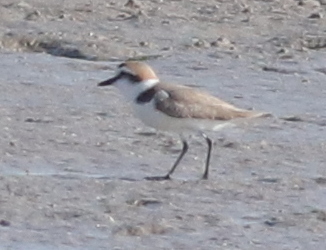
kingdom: Animalia
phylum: Chordata
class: Aves
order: Charadriiformes
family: Charadriidae
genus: Charadrius
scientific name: Charadrius alexandrinus
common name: Kentish plover
